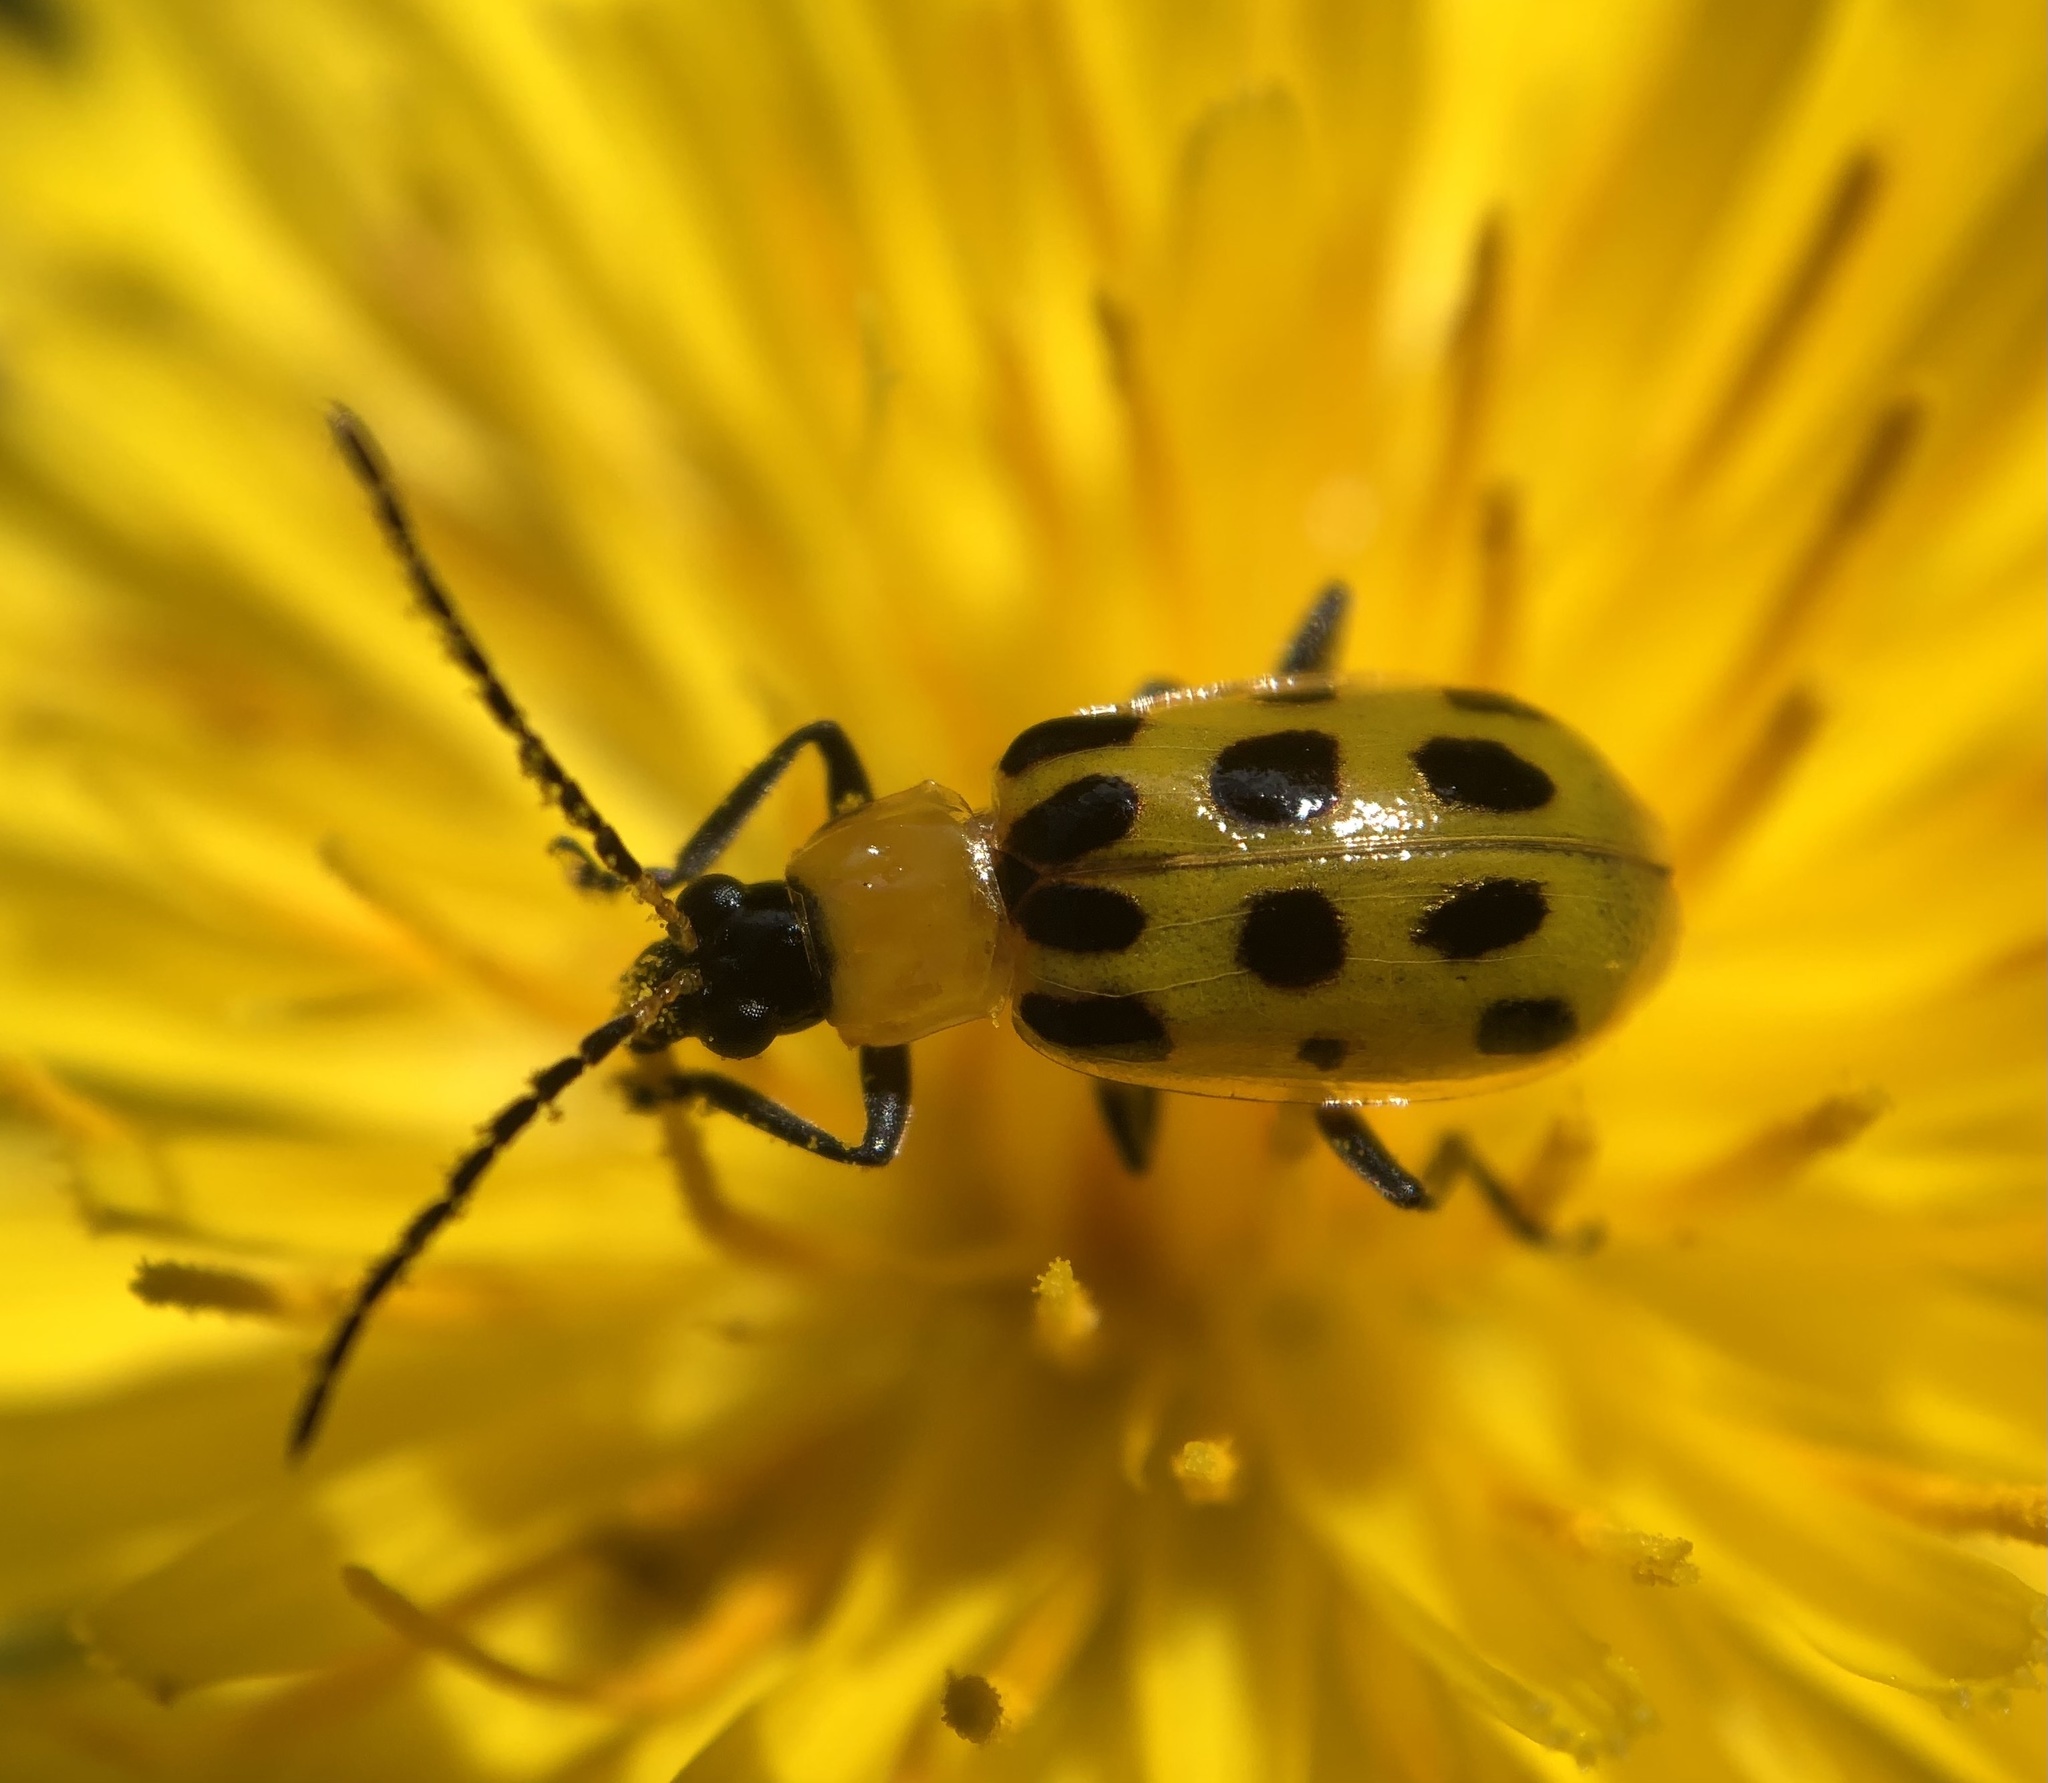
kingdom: Animalia
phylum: Arthropoda
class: Insecta
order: Coleoptera
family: Chrysomelidae
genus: Diabrotica
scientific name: Diabrotica undecimpunctata
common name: Spotted cucumber beetle
